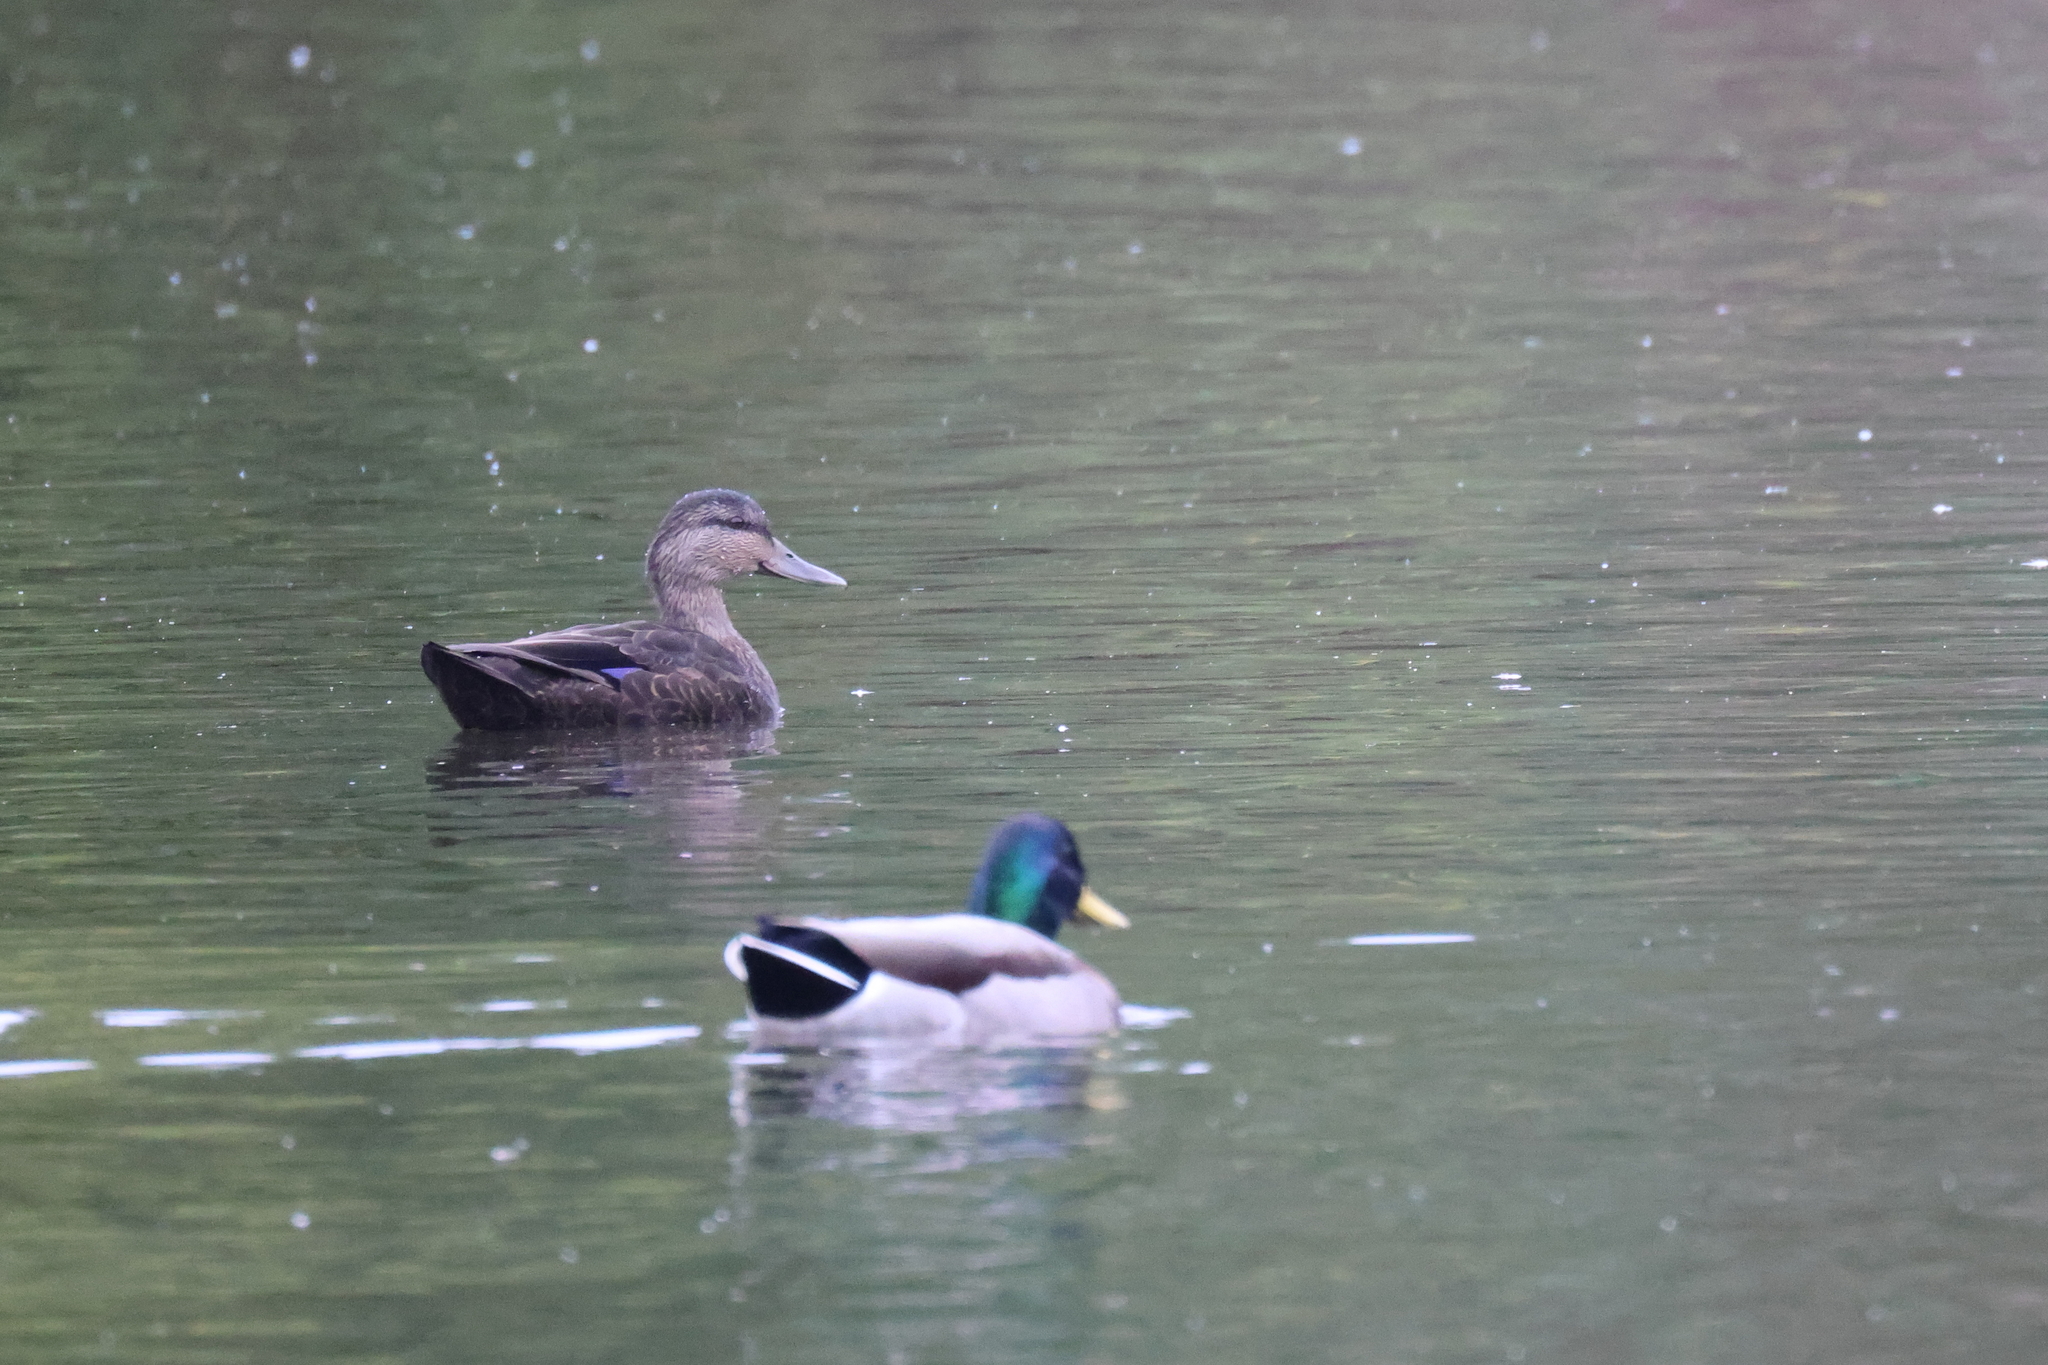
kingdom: Animalia
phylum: Chordata
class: Aves
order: Anseriformes
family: Anatidae
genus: Anas
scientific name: Anas platyrhynchos
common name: Mallard
